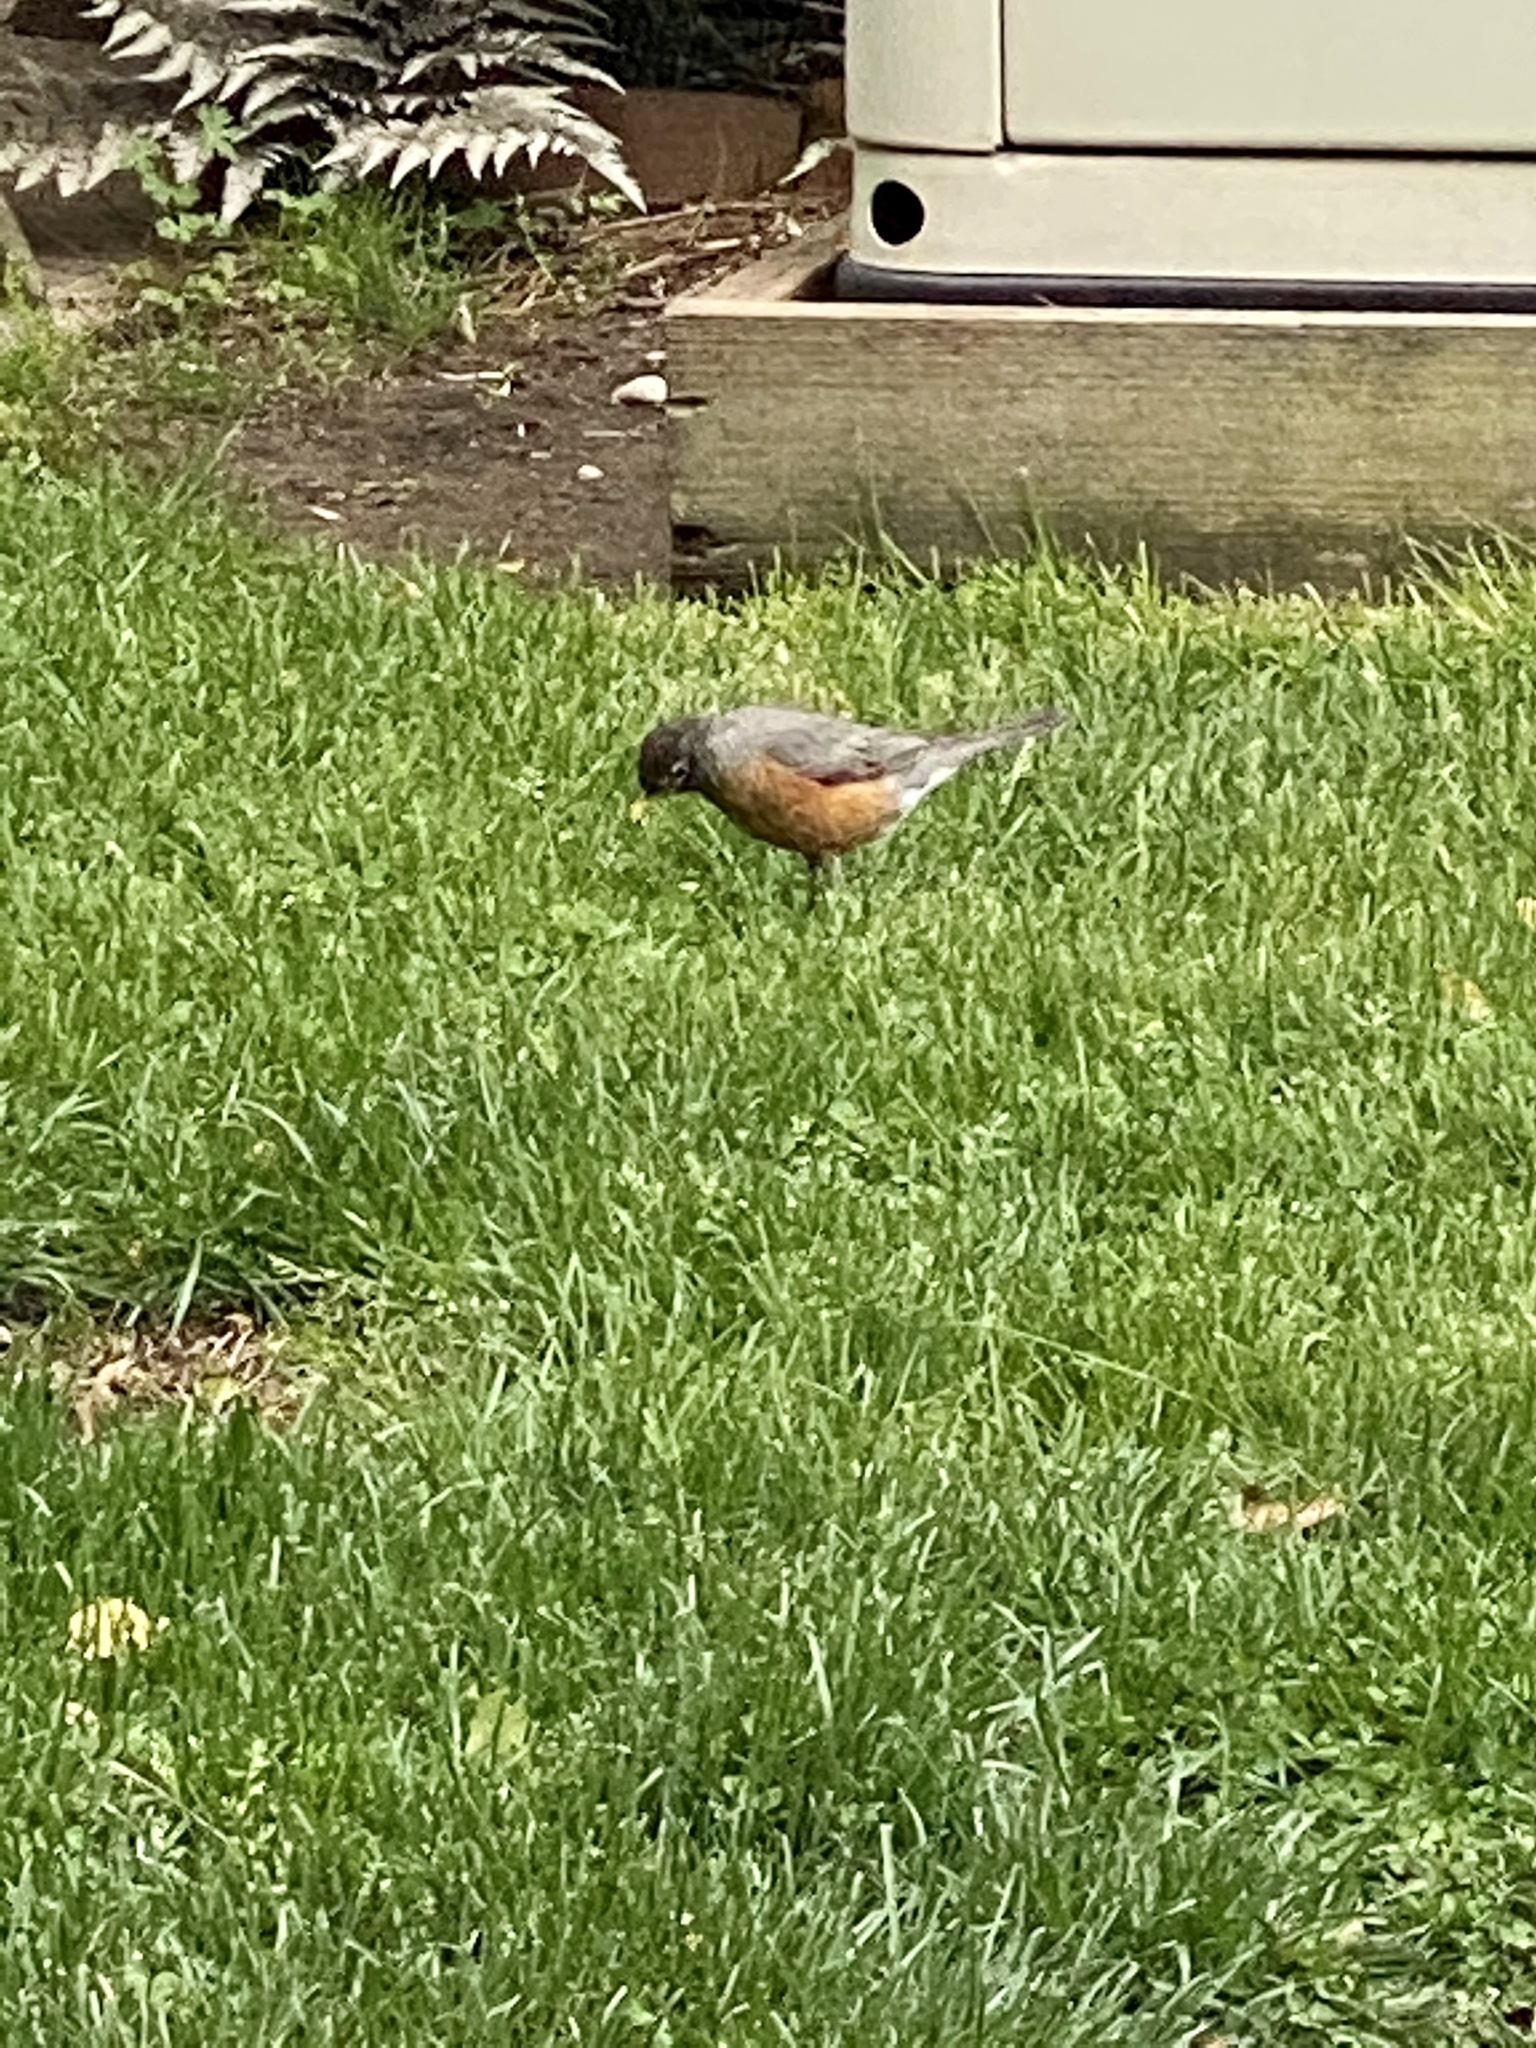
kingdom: Animalia
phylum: Chordata
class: Aves
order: Passeriformes
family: Turdidae
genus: Turdus
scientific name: Turdus migratorius
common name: American robin
